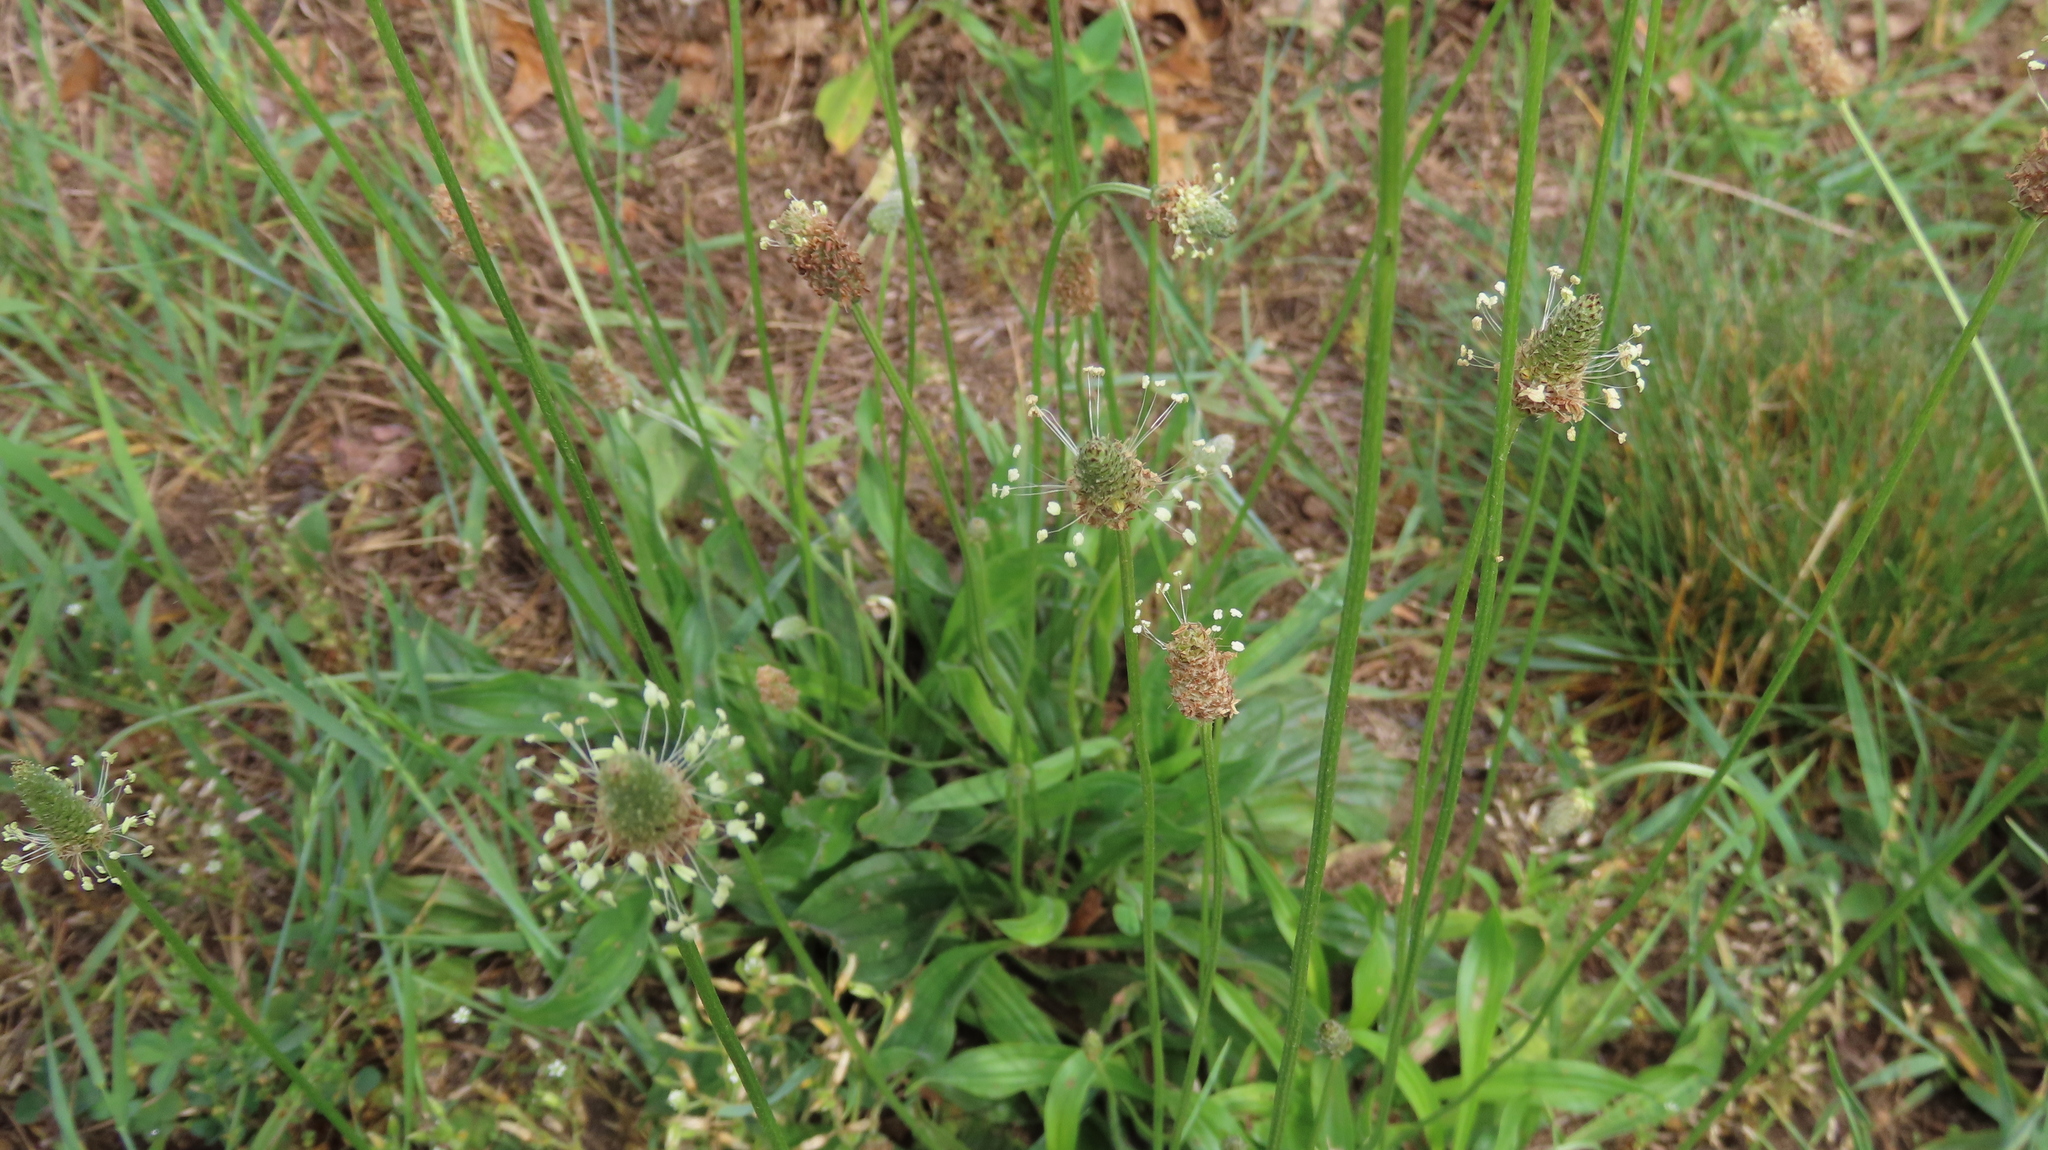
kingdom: Plantae
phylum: Tracheophyta
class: Magnoliopsida
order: Lamiales
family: Plantaginaceae
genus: Plantago
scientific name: Plantago lanceolata
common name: Ribwort plantain
